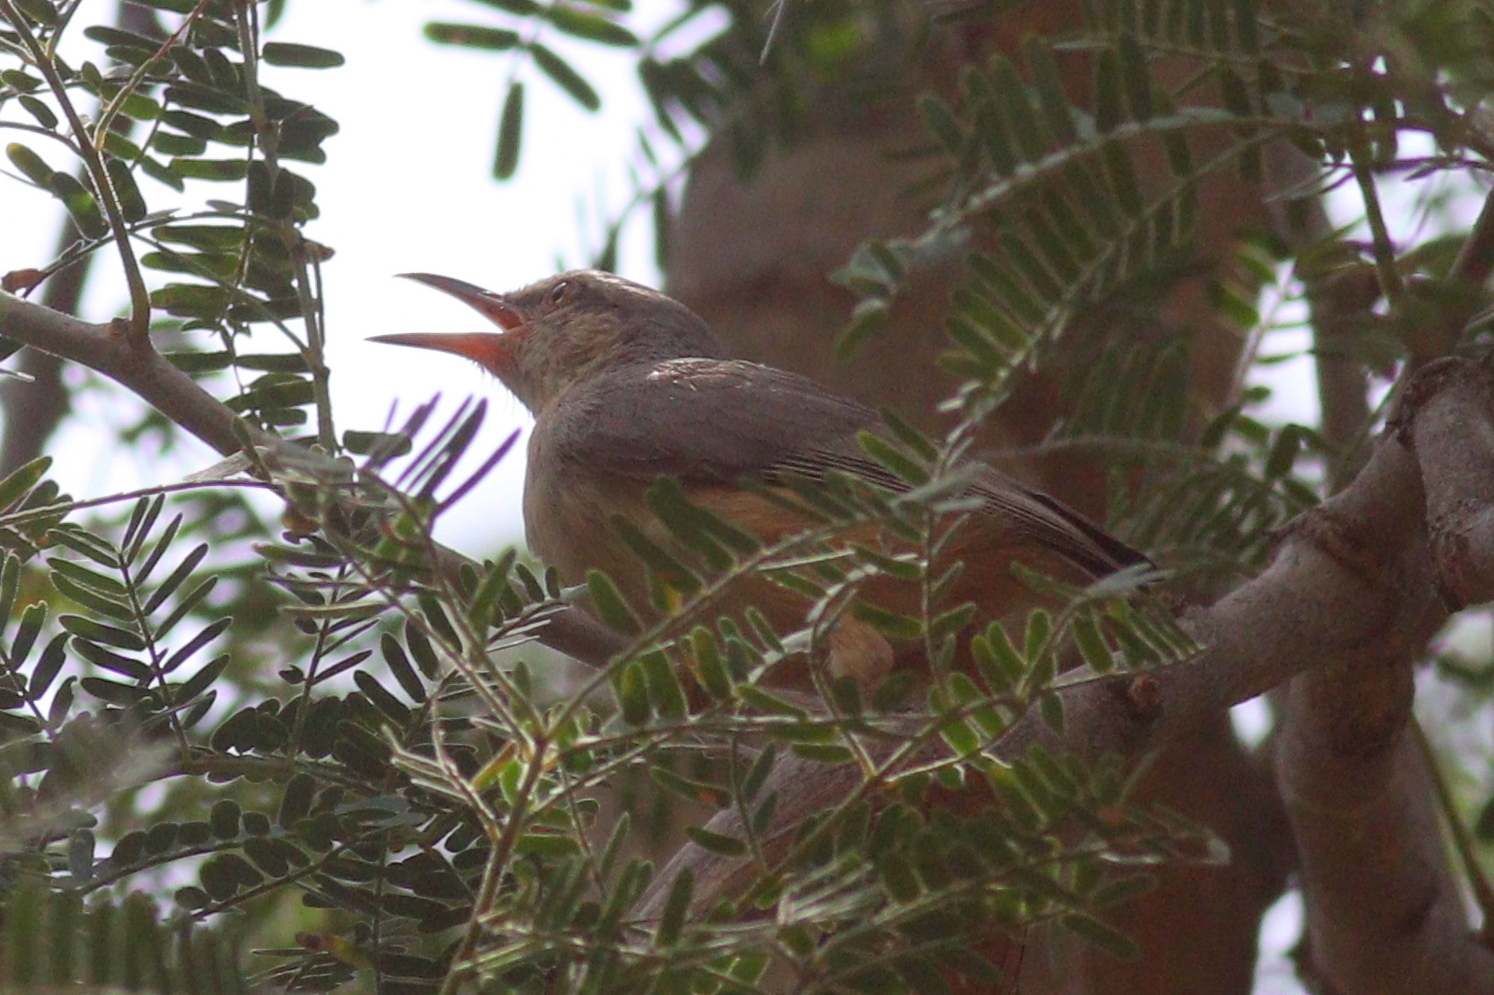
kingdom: Animalia
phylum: Chordata
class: Aves
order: Passeriformes
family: Macrosphenidae
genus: Sylvietta
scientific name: Sylvietta rufescens
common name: Long-billed crombec
